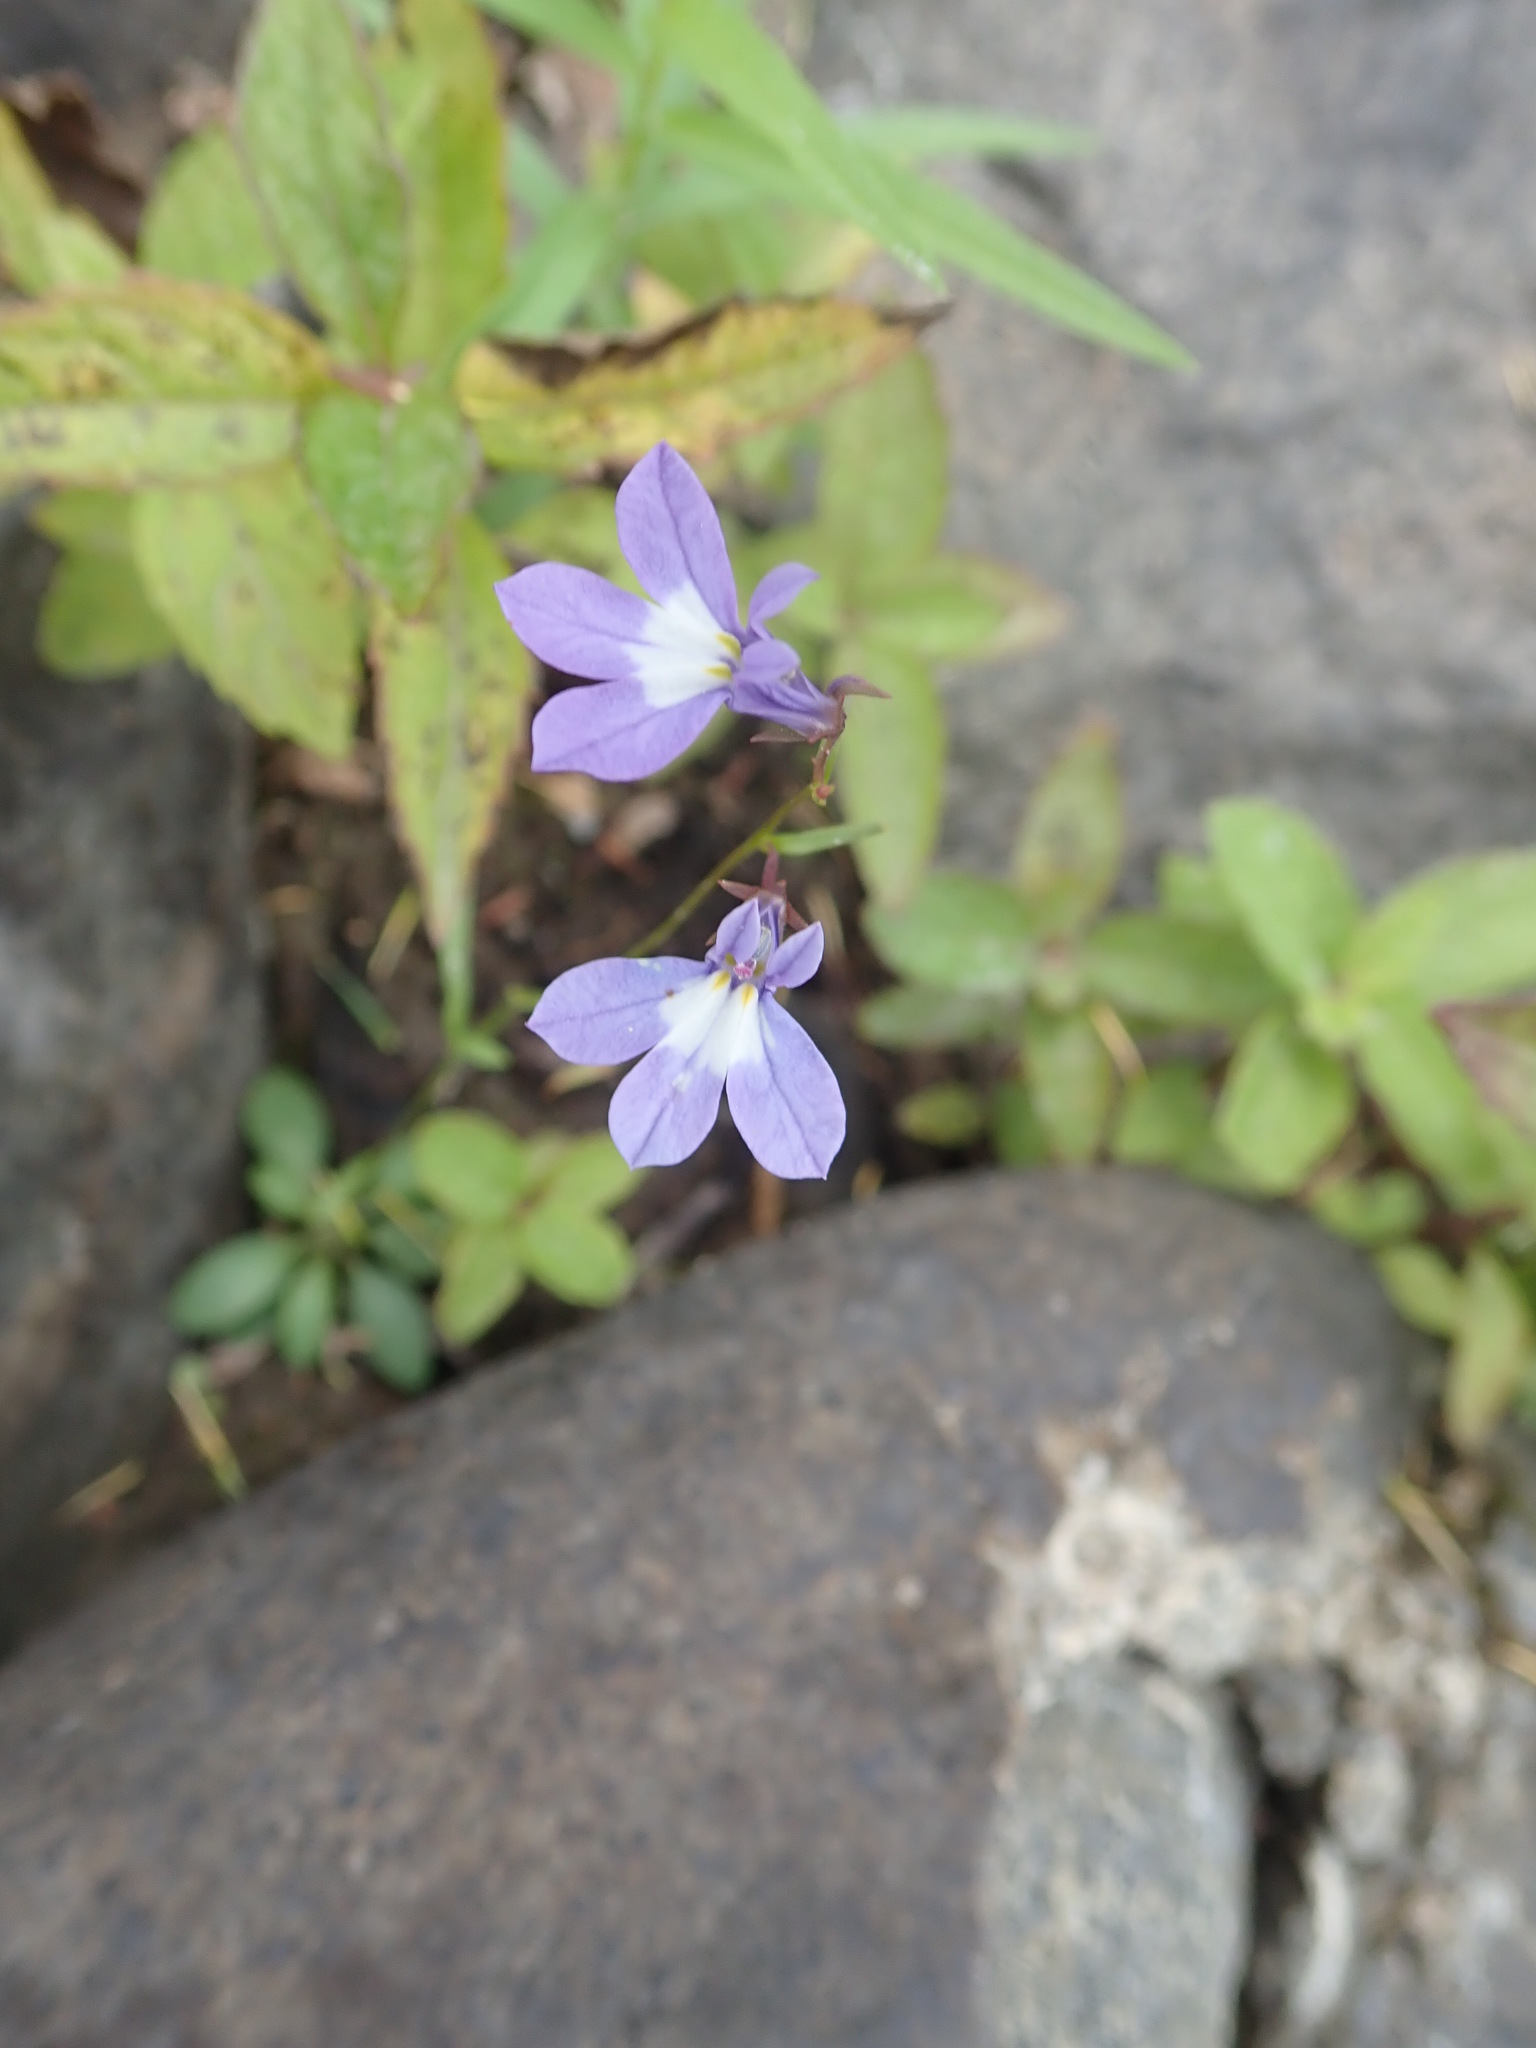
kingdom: Plantae
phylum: Tracheophyta
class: Magnoliopsida
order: Asterales
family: Campanulaceae
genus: Lobelia
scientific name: Lobelia kalmii
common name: Kalm's lobelia
